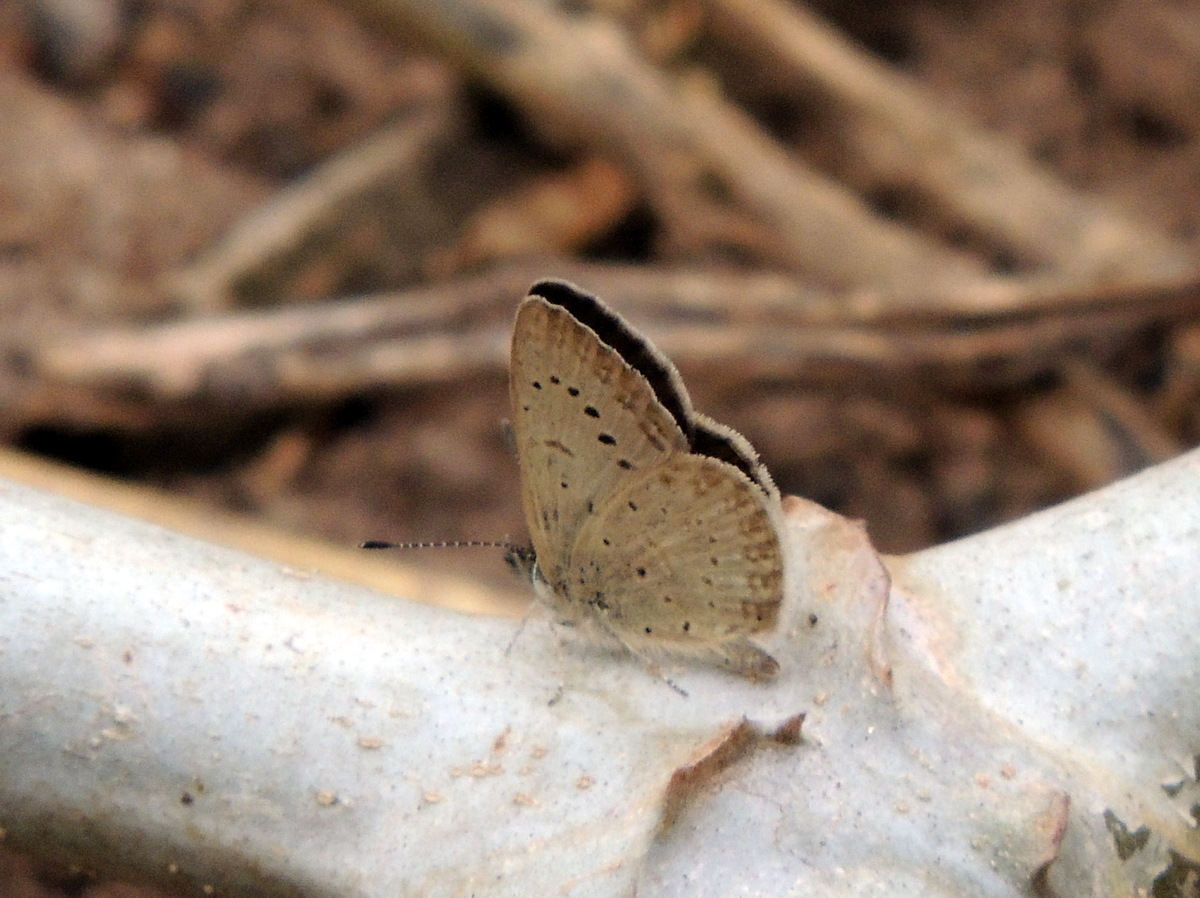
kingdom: Animalia
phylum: Arthropoda
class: Insecta
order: Lepidoptera
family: Lycaenidae
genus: Zizeeria
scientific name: Zizeeria knysna
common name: African grass blue
